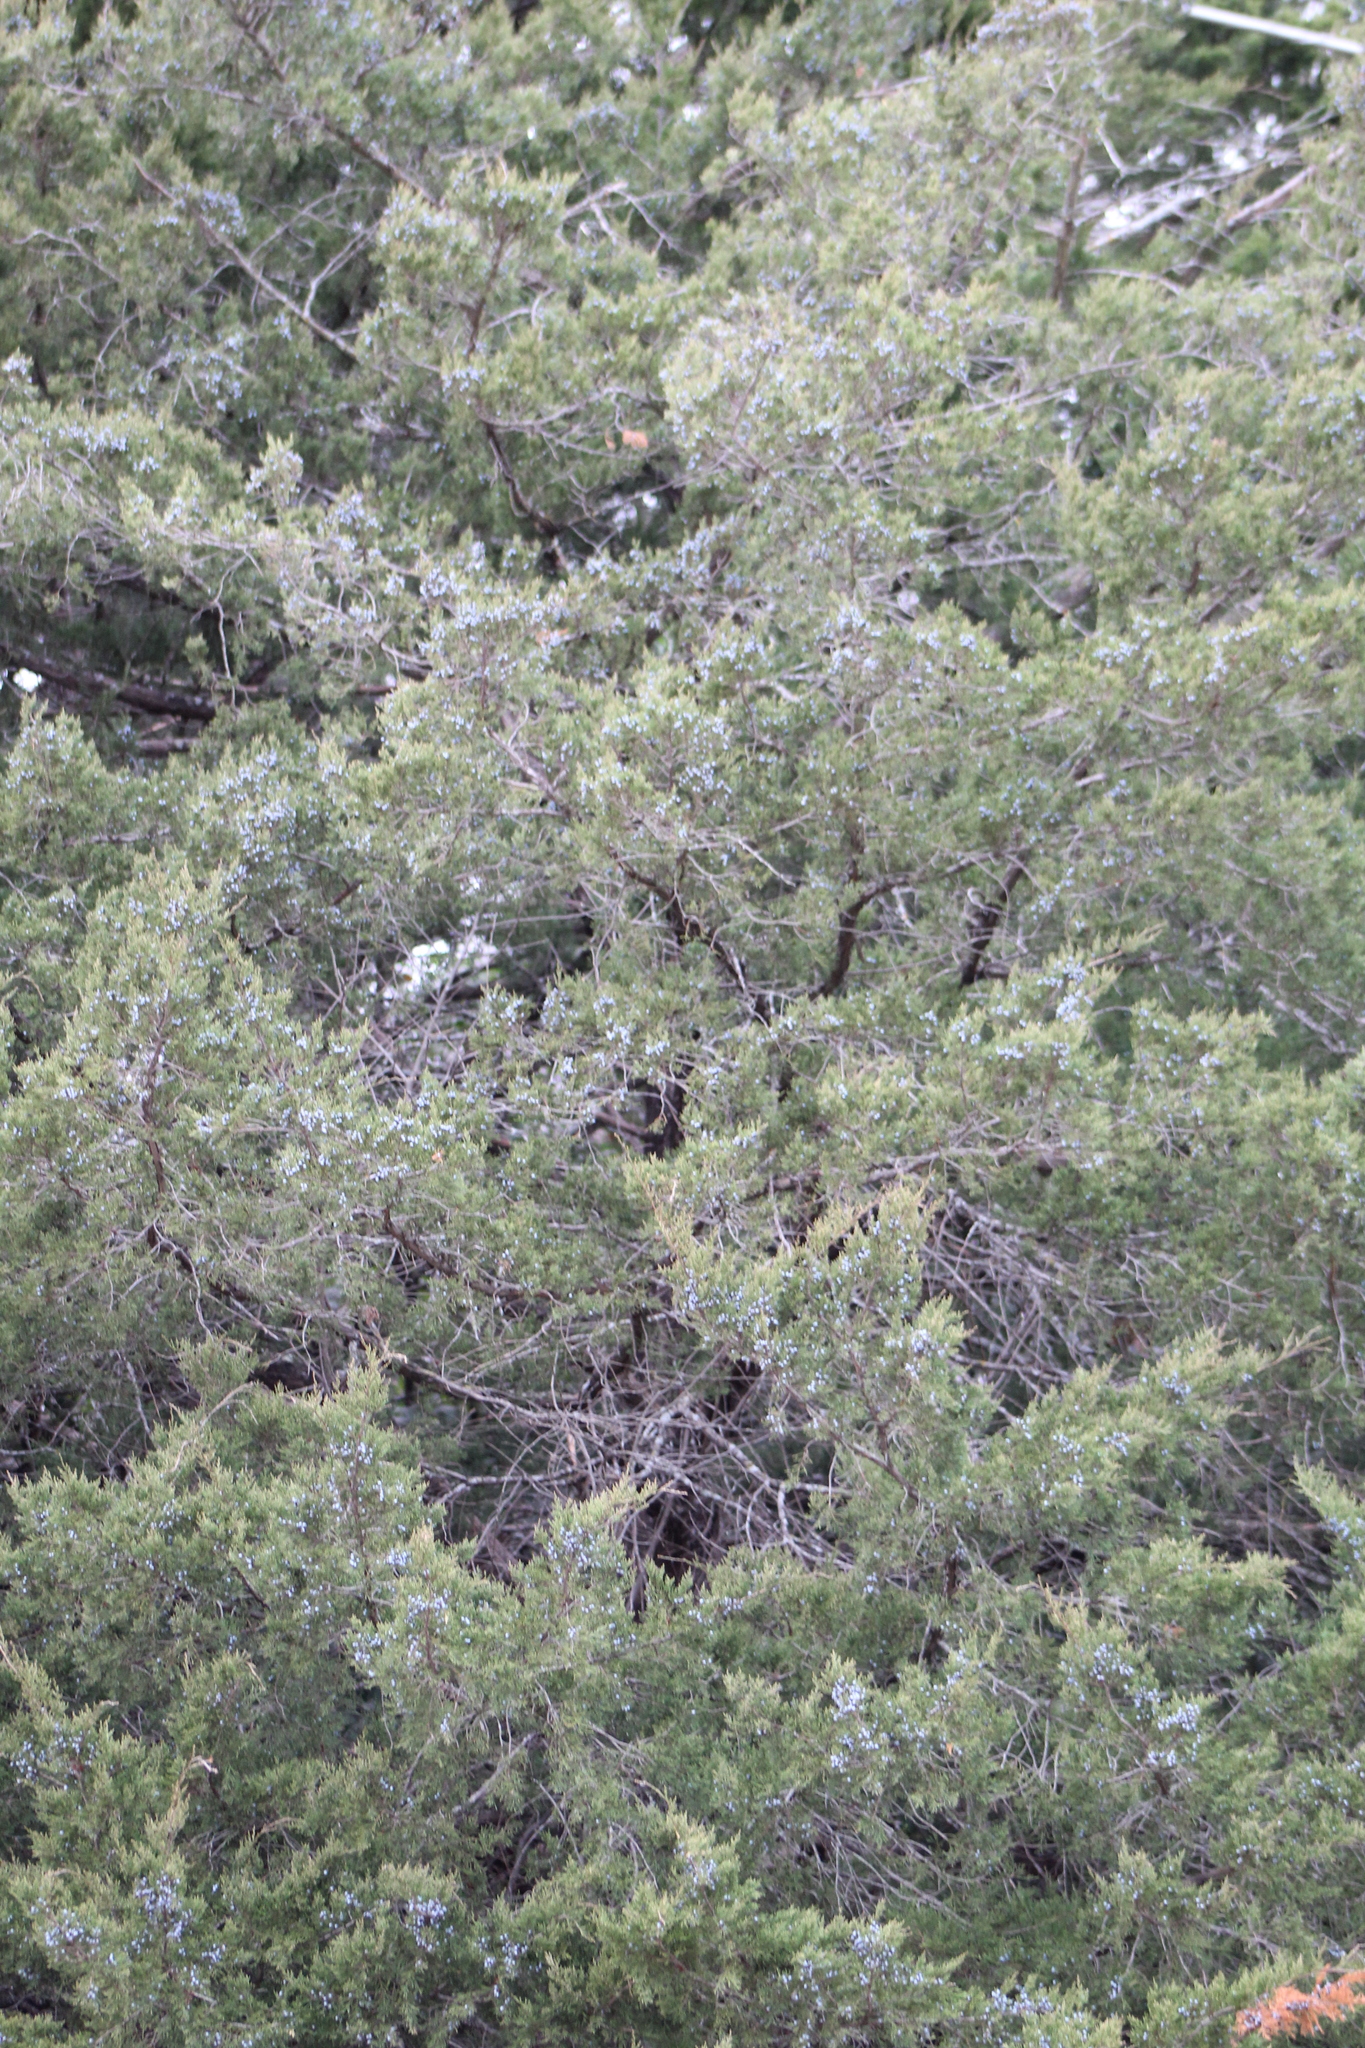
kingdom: Plantae
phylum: Tracheophyta
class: Pinopsida
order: Pinales
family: Cupressaceae
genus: Juniperus
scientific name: Juniperus virginiana
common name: Red juniper
